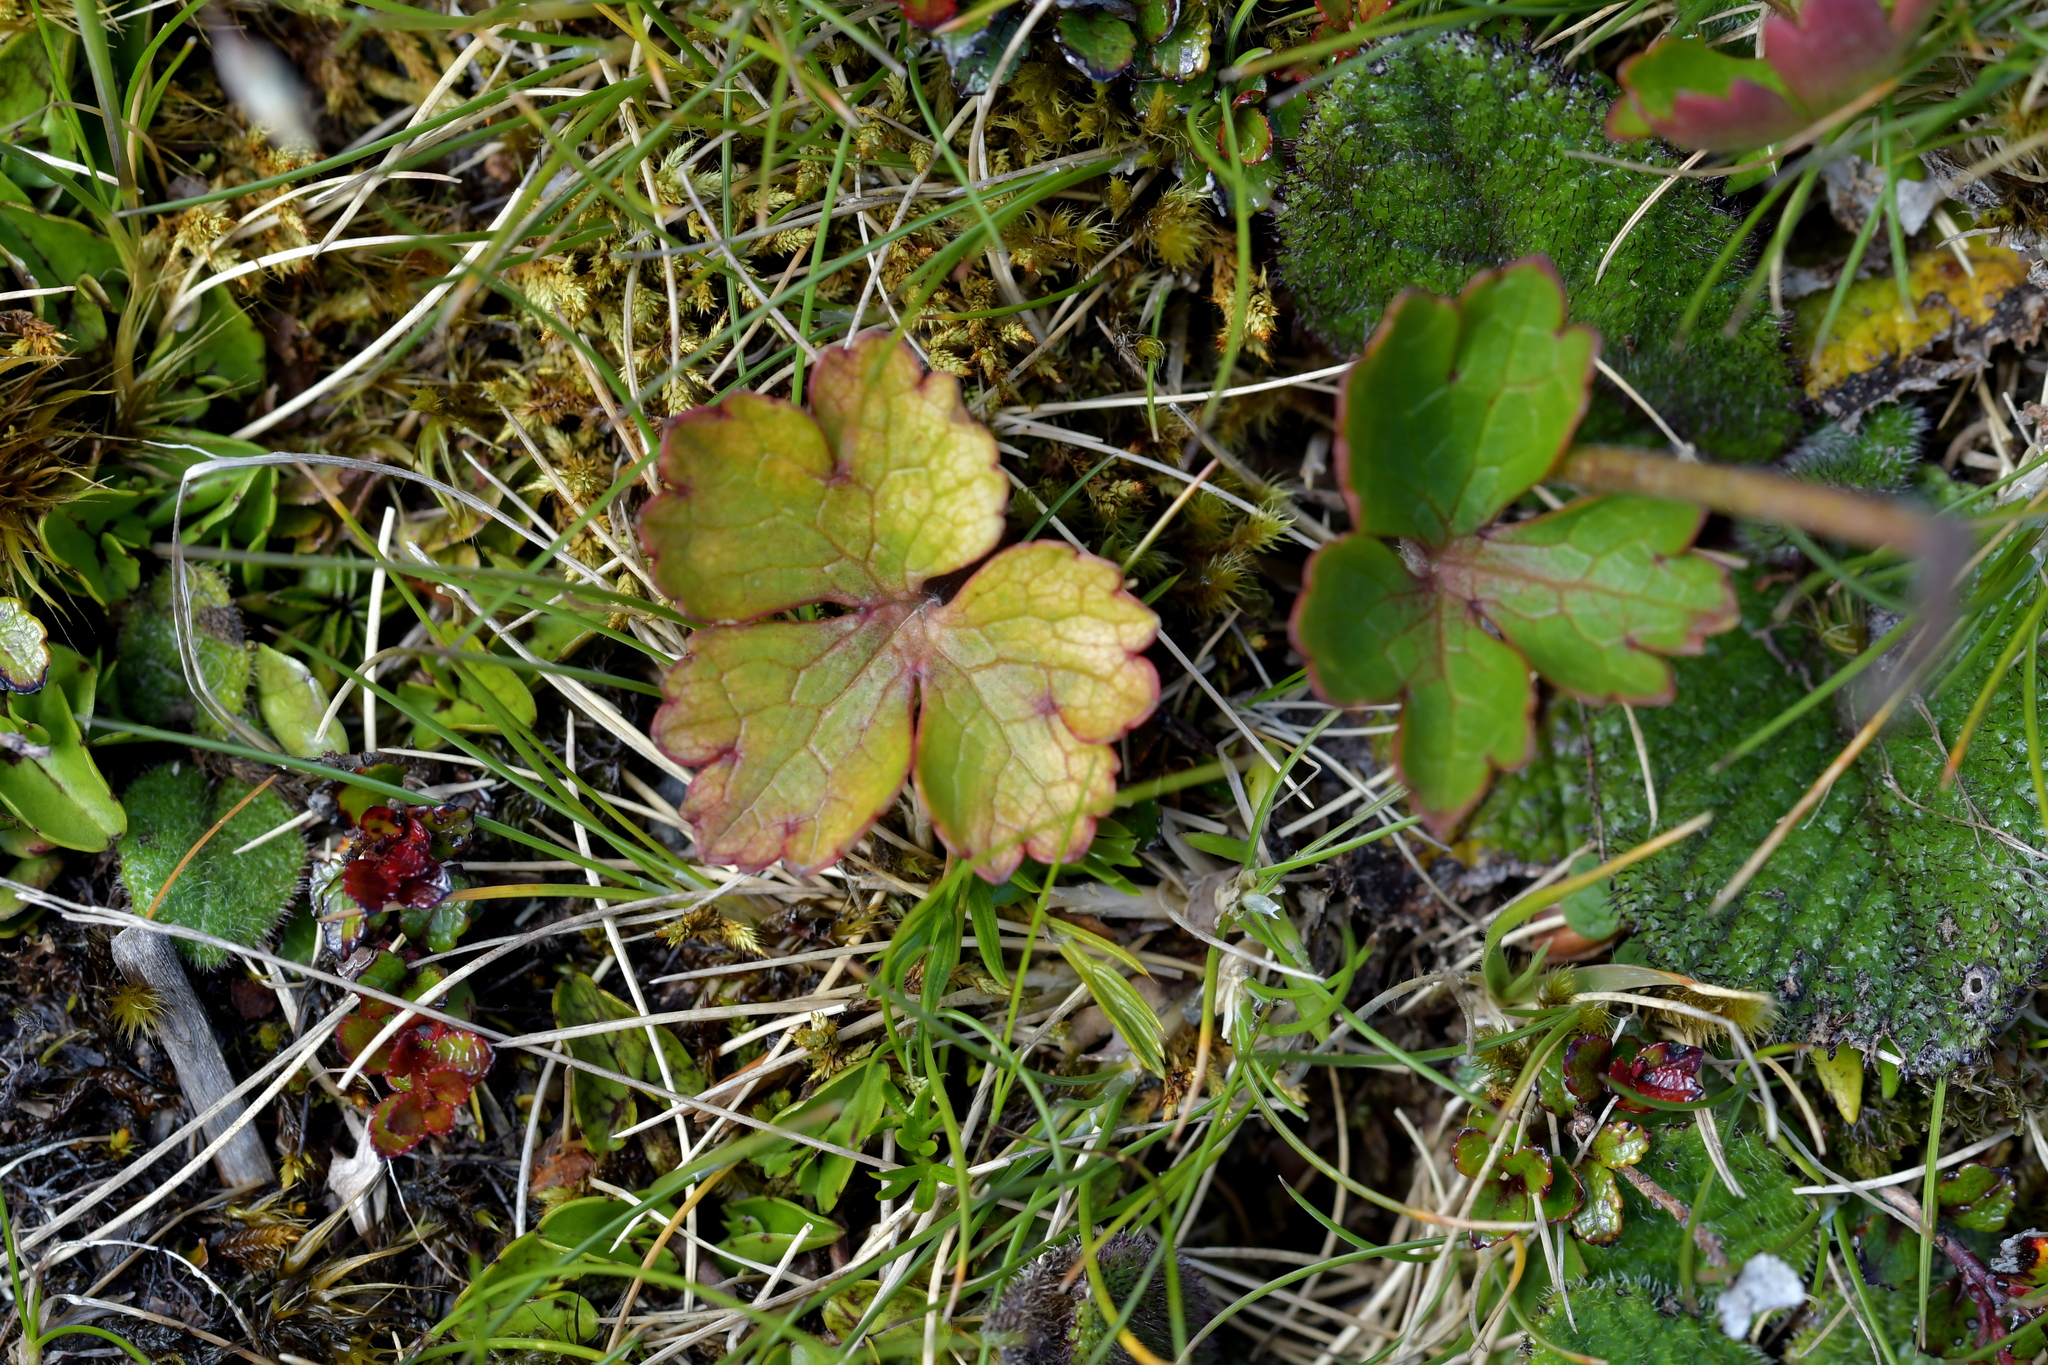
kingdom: Plantae
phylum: Tracheophyta
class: Magnoliopsida
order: Ranunculales
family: Ranunculaceae
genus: Ranunculus
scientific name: Ranunculus verticillatus
